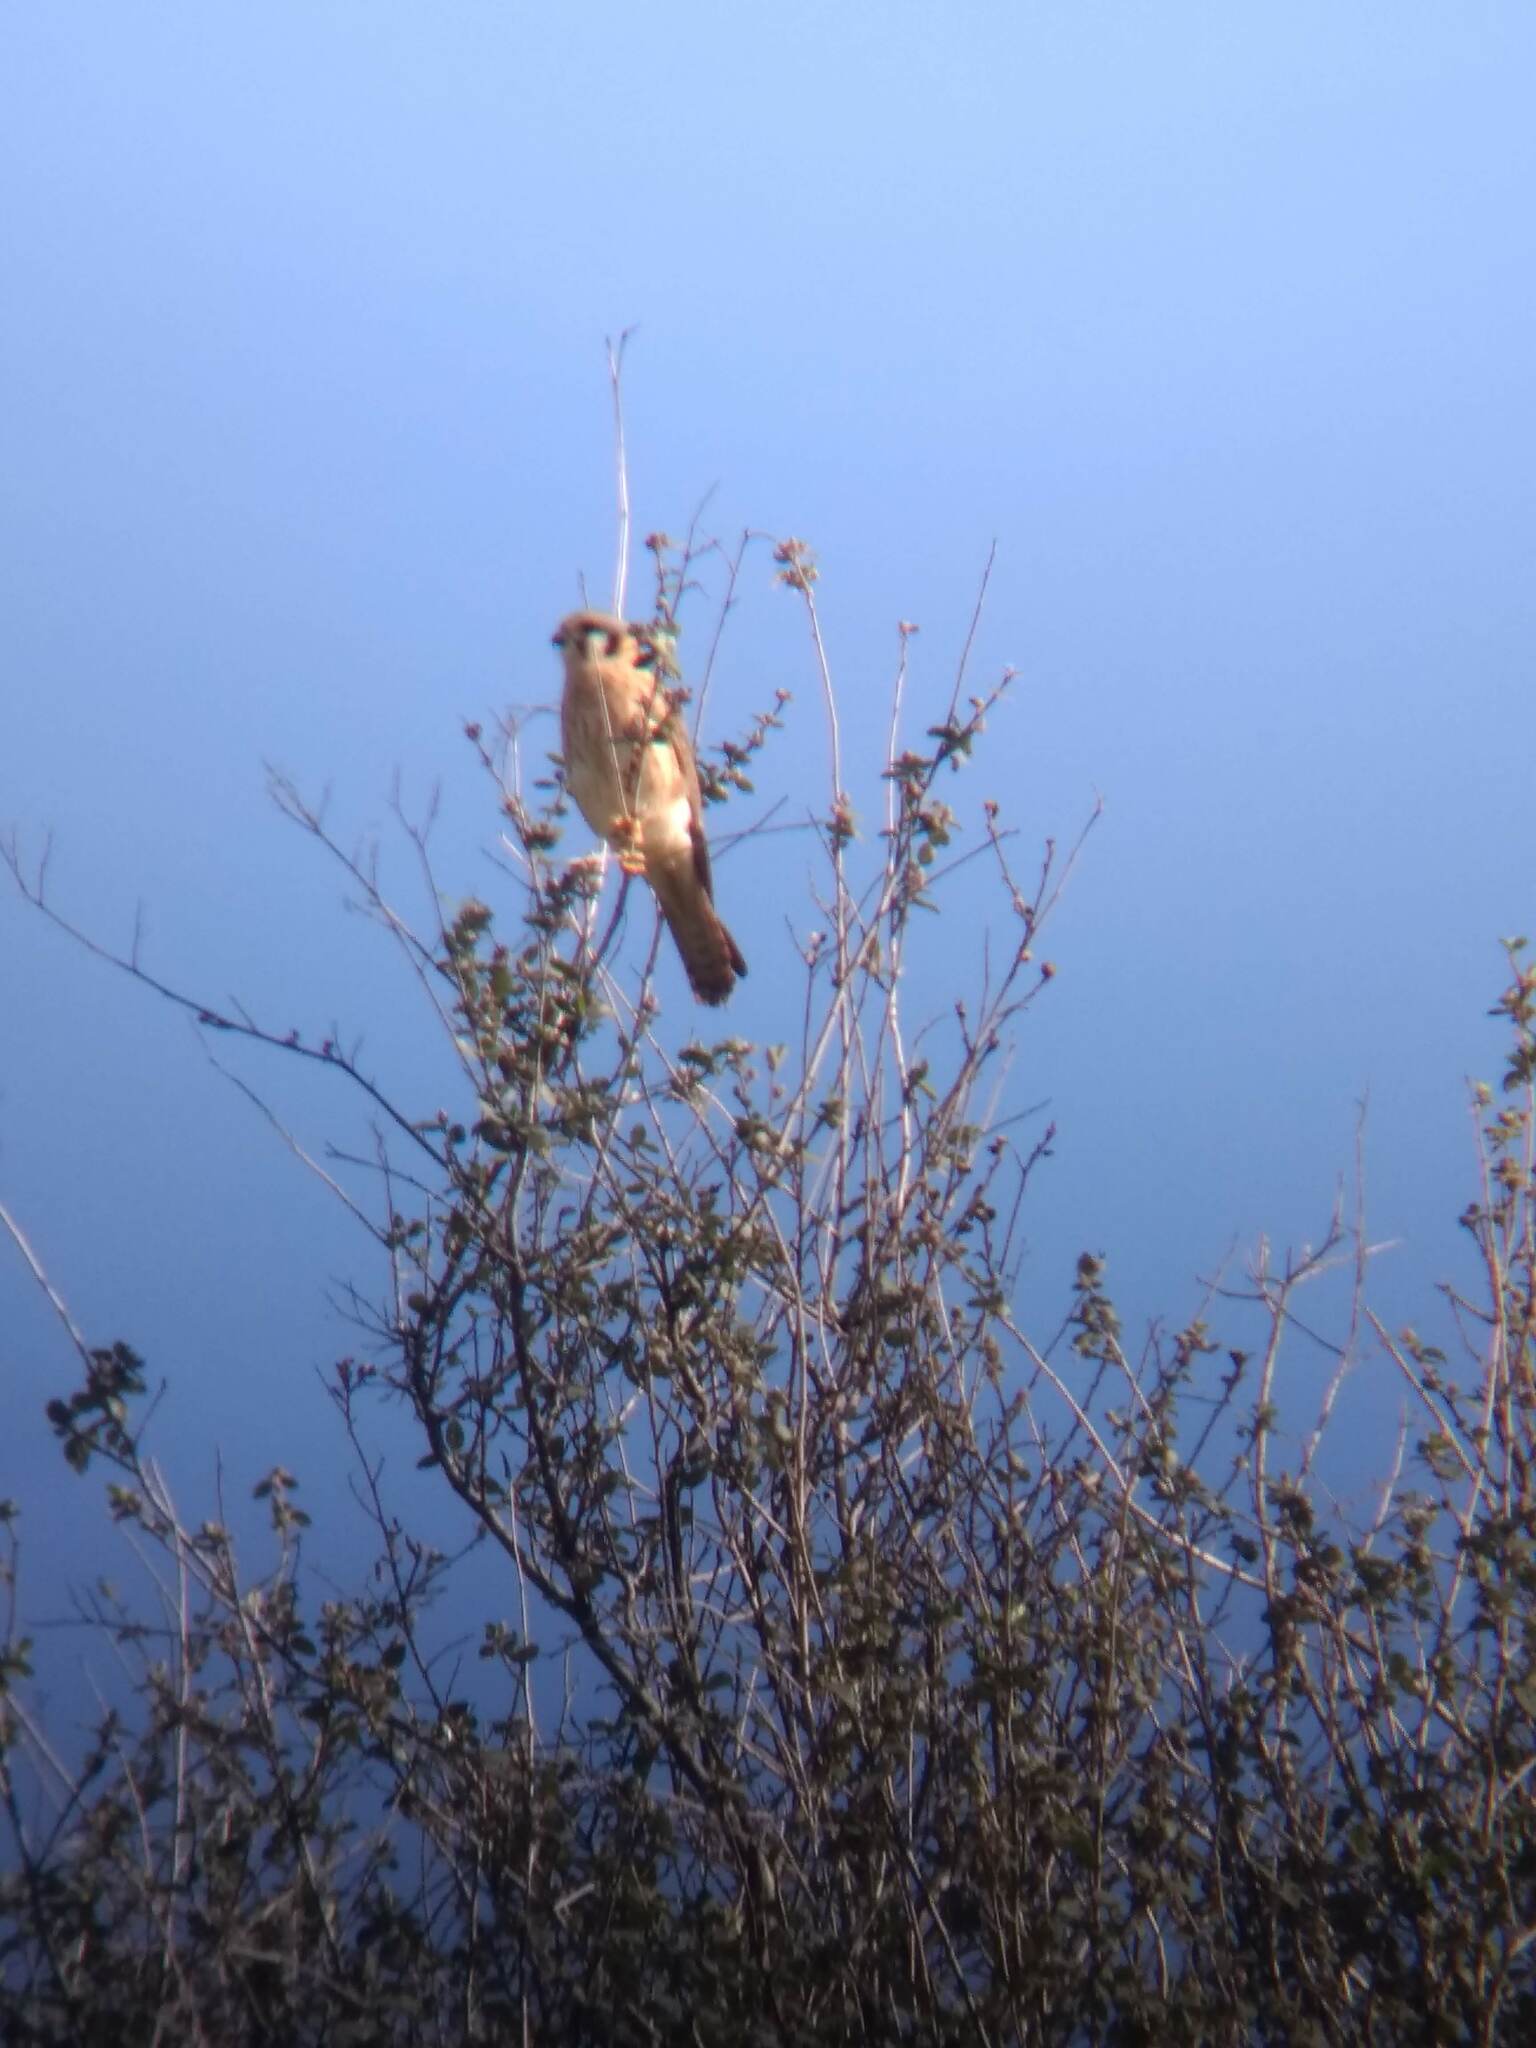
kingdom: Animalia
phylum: Chordata
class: Aves
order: Falconiformes
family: Falconidae
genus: Falco
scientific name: Falco sparverius
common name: American kestrel
